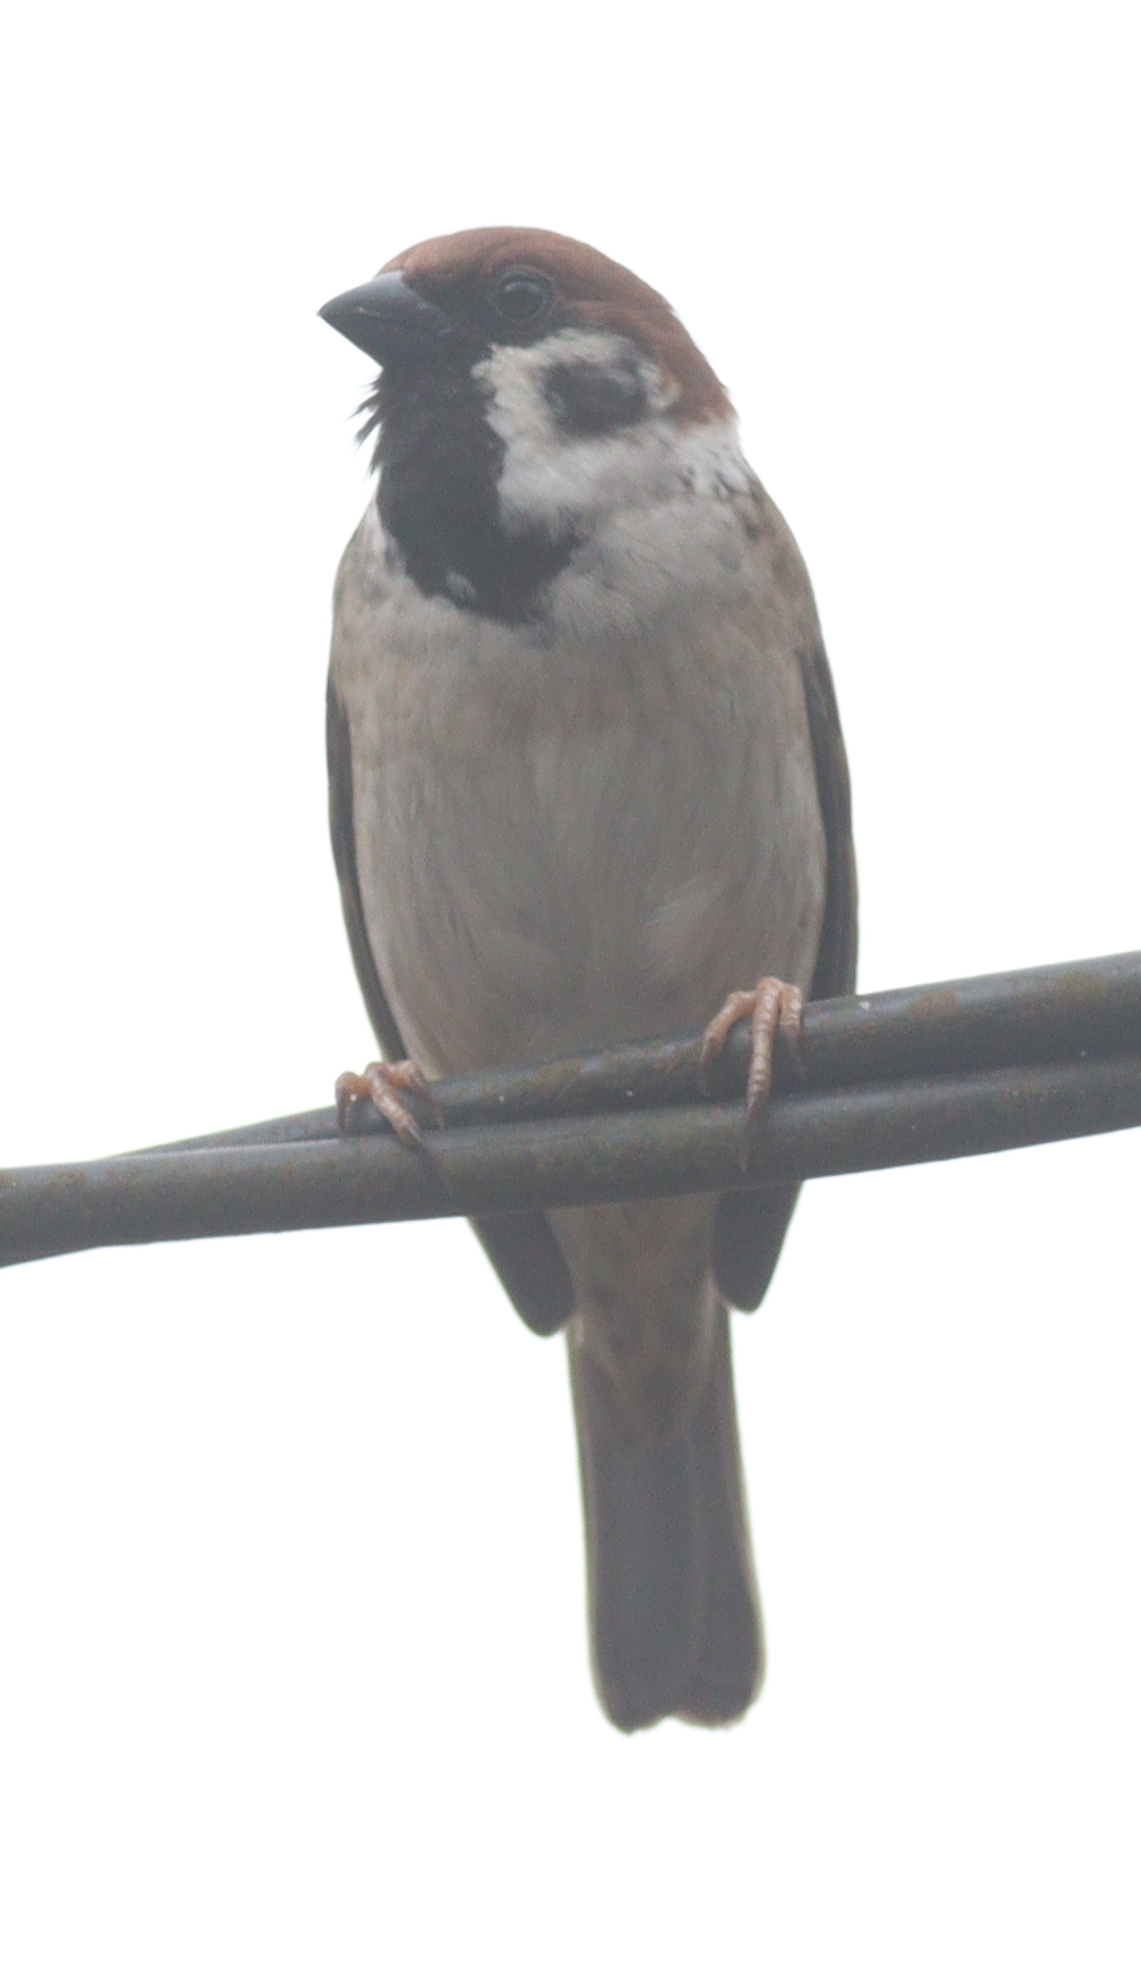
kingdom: Animalia
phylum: Chordata
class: Aves
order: Passeriformes
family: Passeridae
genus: Passer
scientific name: Passer montanus
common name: Eurasian tree sparrow
